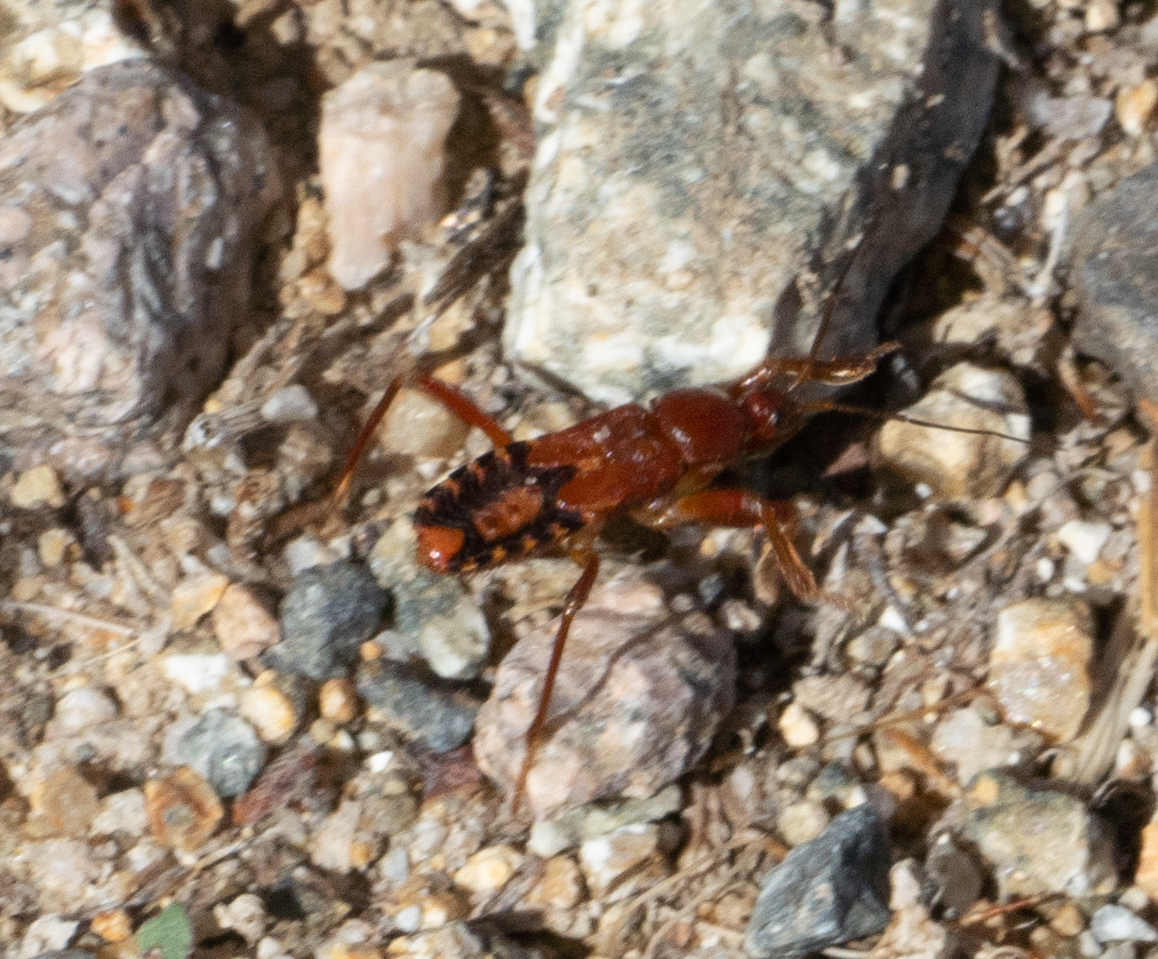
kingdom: Animalia
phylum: Arthropoda
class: Insecta
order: Hemiptera
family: Reduviidae
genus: Rasahus
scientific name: Rasahus thoracicus
